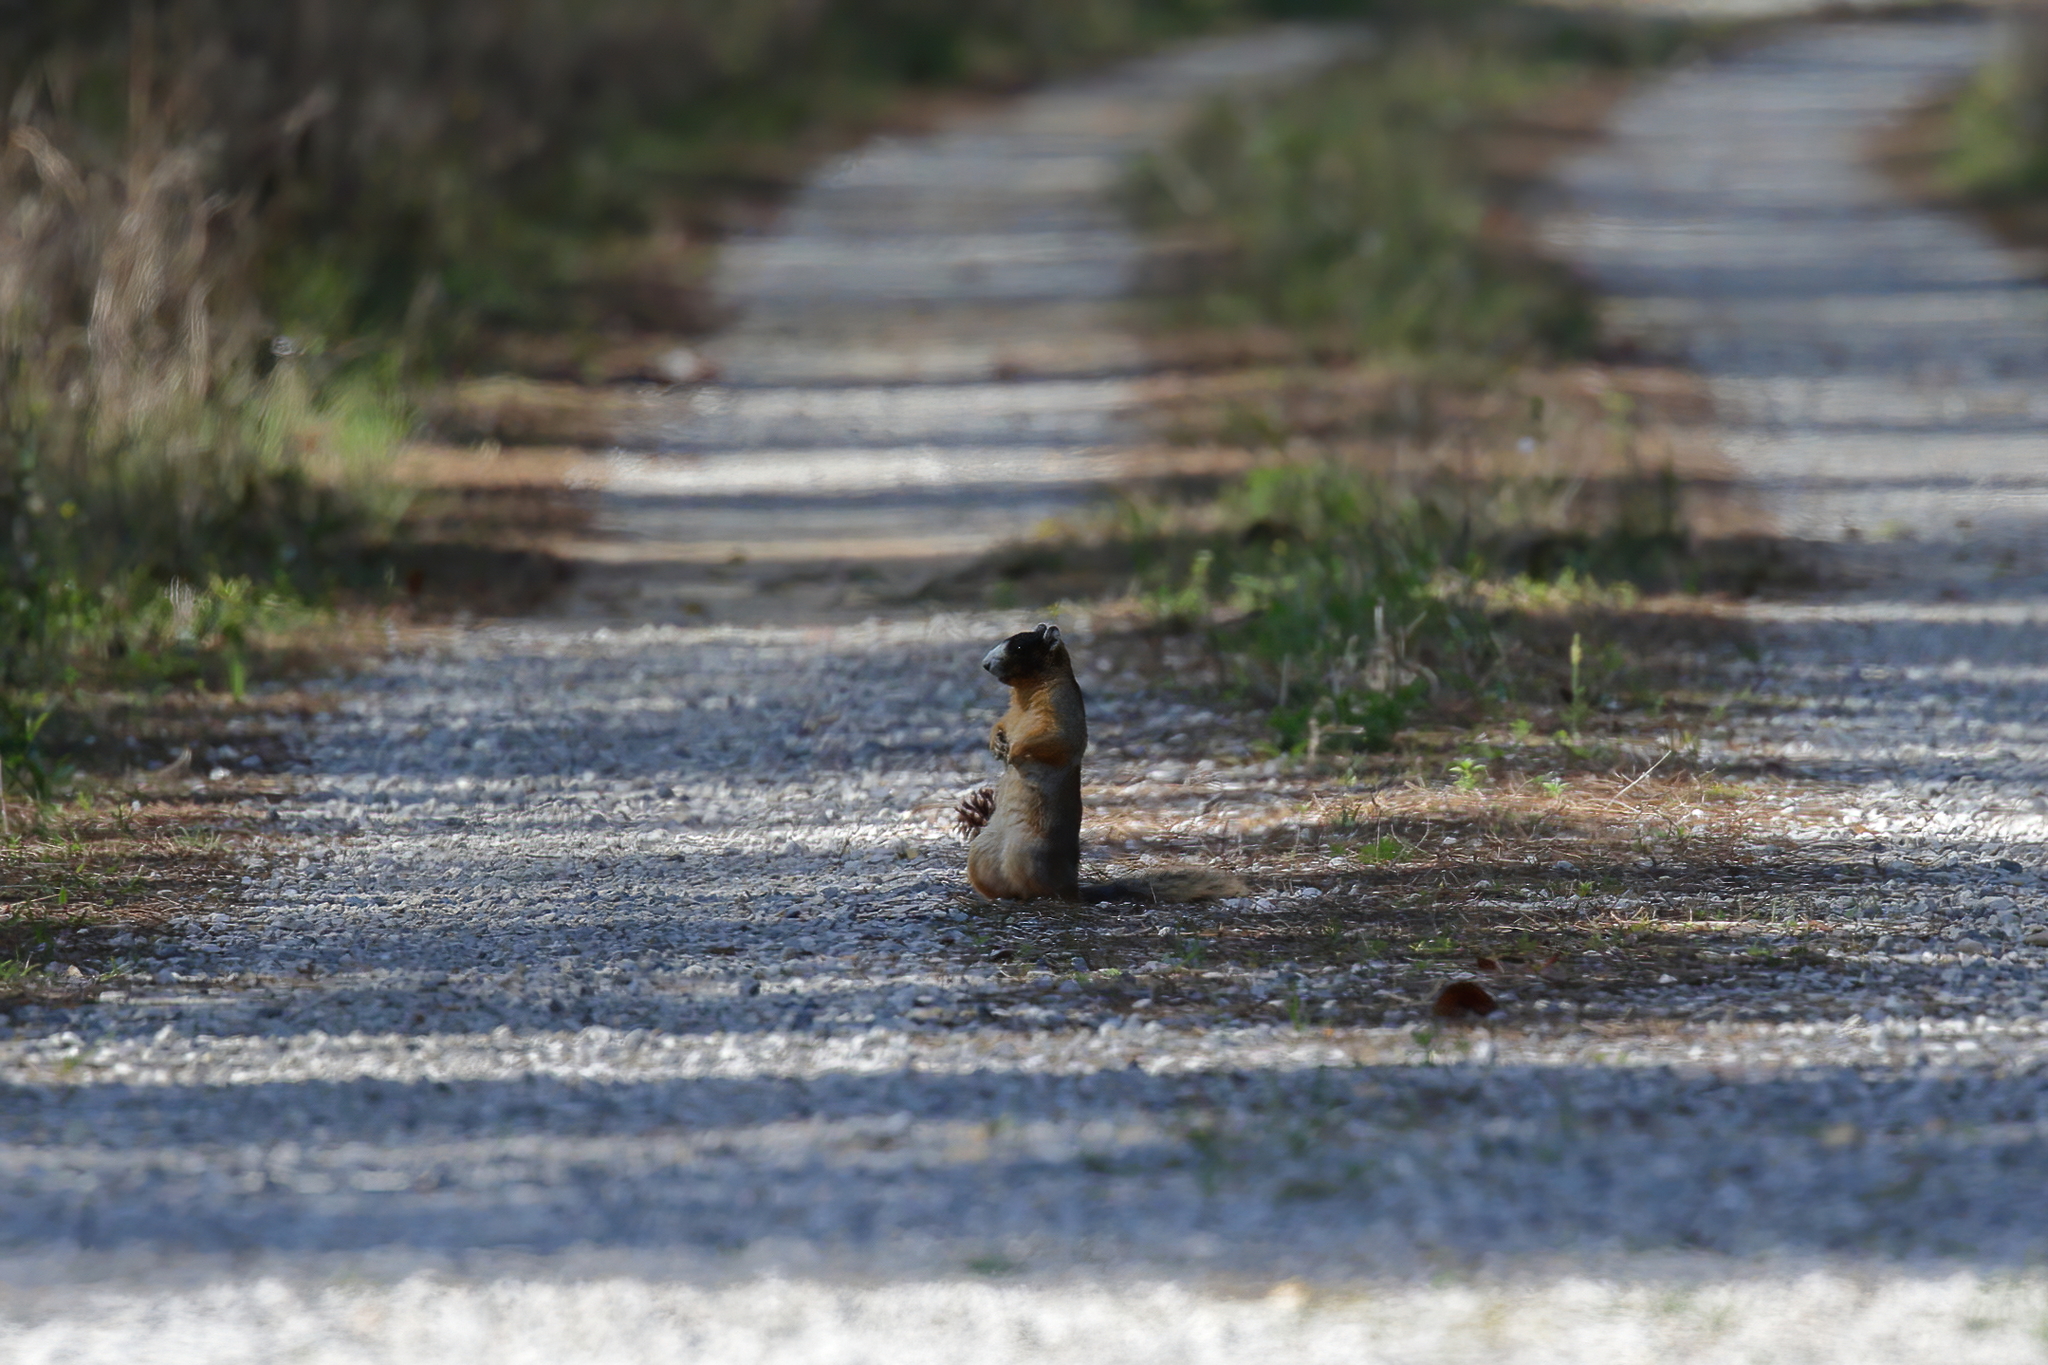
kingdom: Animalia
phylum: Chordata
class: Mammalia
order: Rodentia
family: Sciuridae
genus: Sciurus
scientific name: Sciurus niger
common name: Fox squirrel
